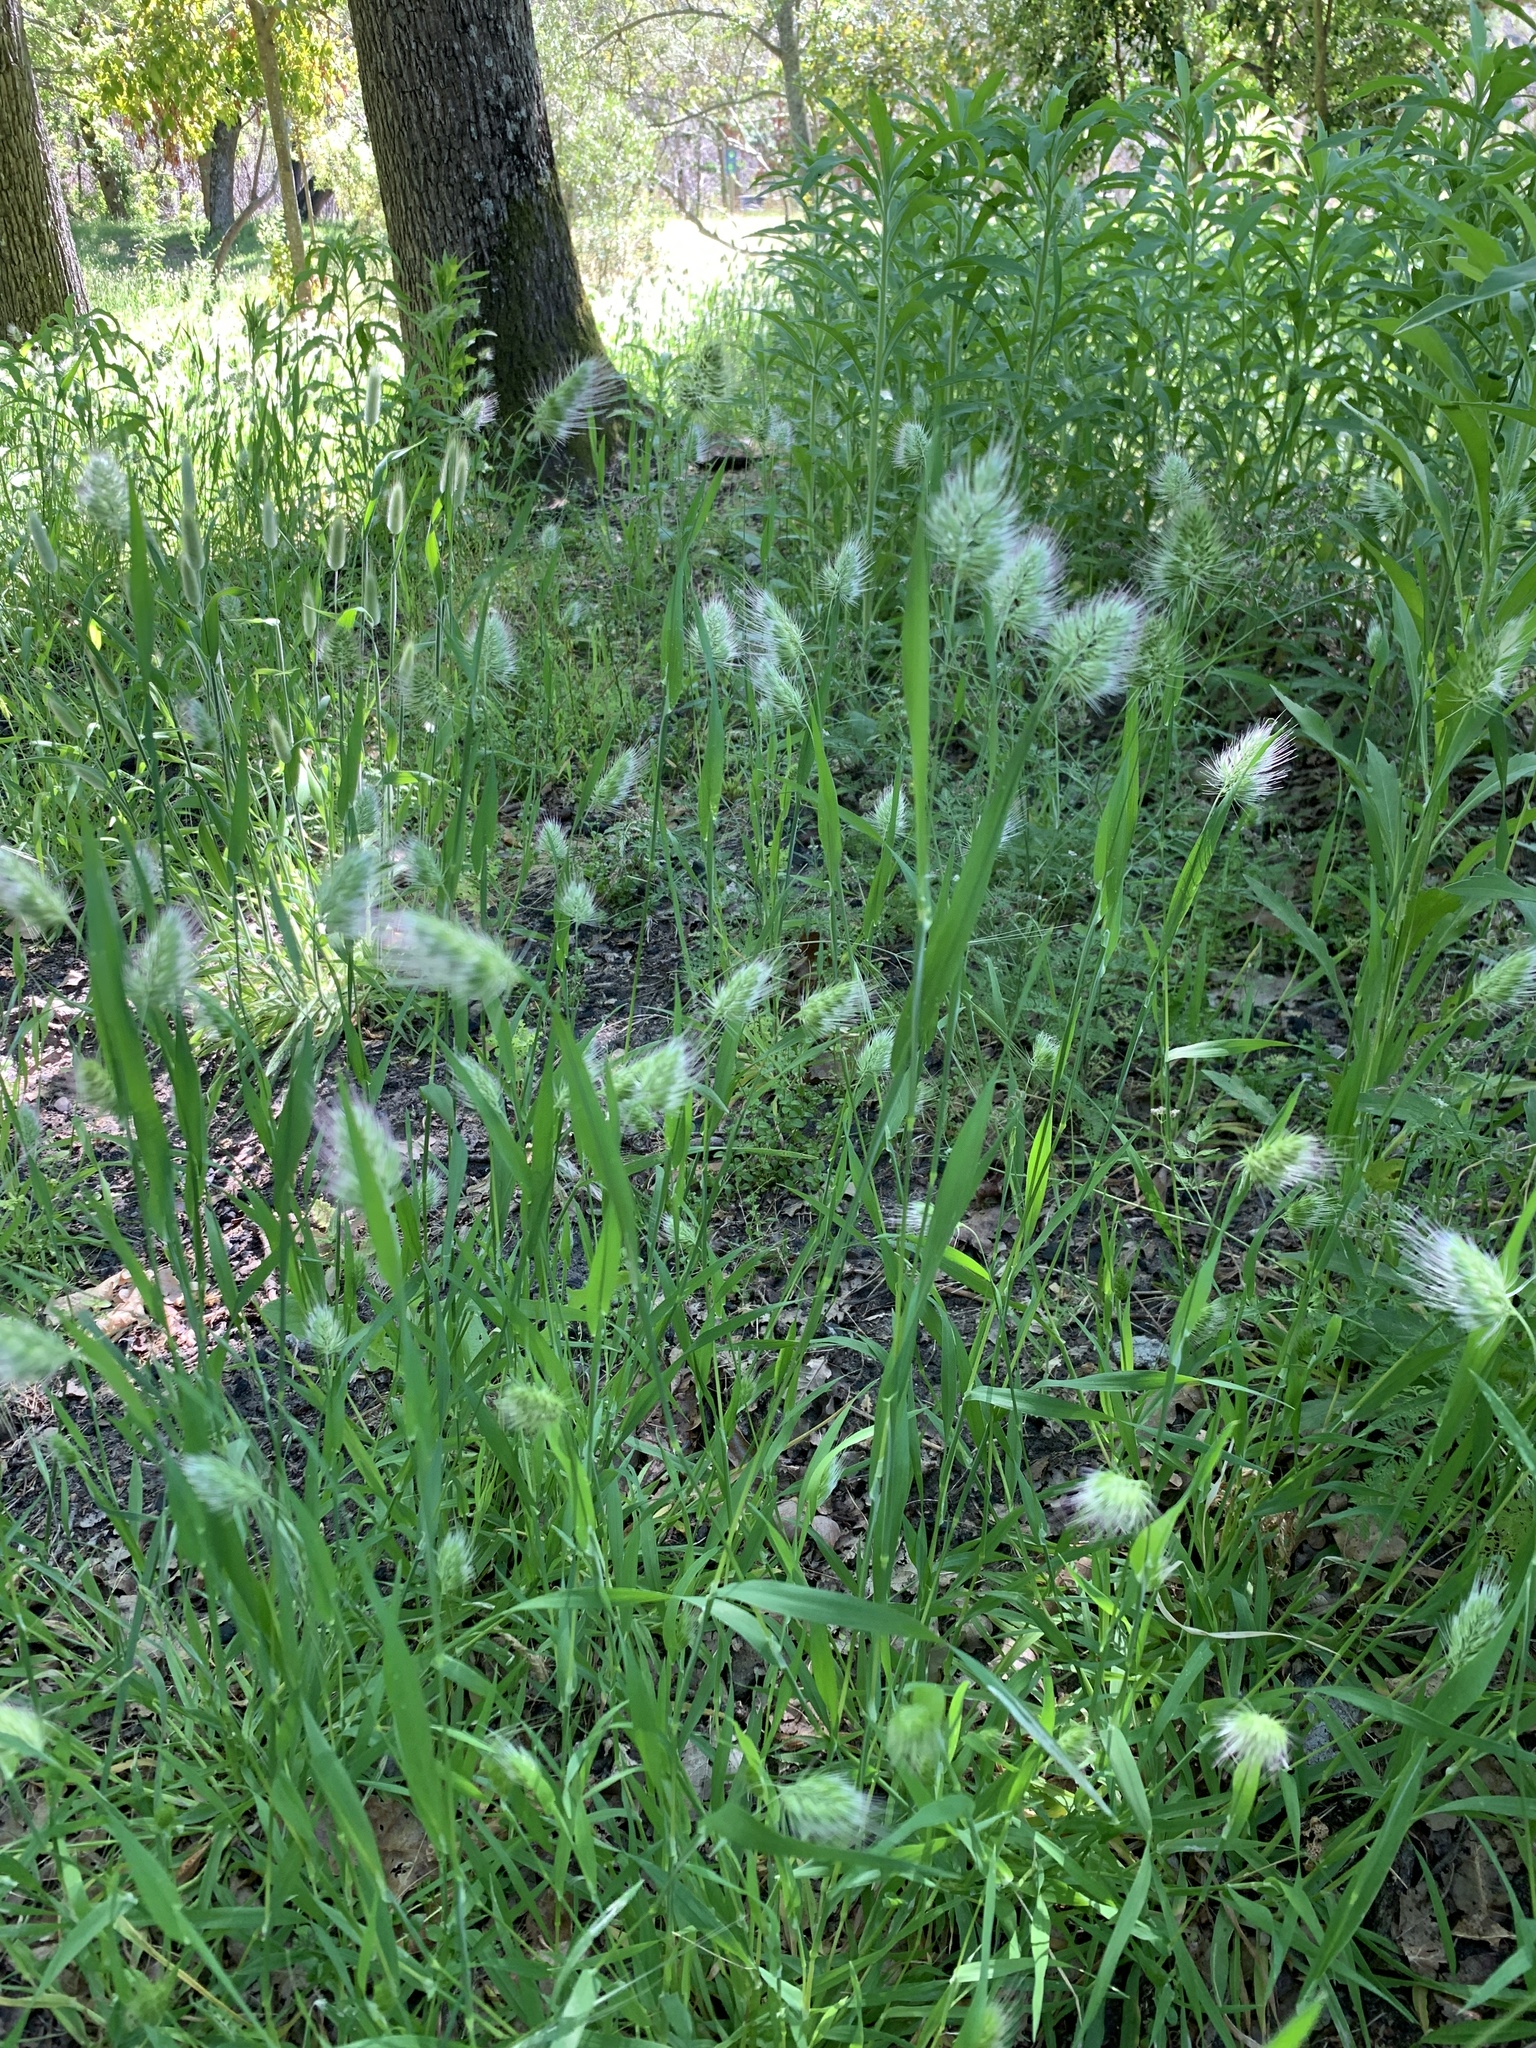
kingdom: Plantae
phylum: Tracheophyta
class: Liliopsida
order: Poales
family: Poaceae
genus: Cynosurus
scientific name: Cynosurus echinatus
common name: Rough dog's-tail
